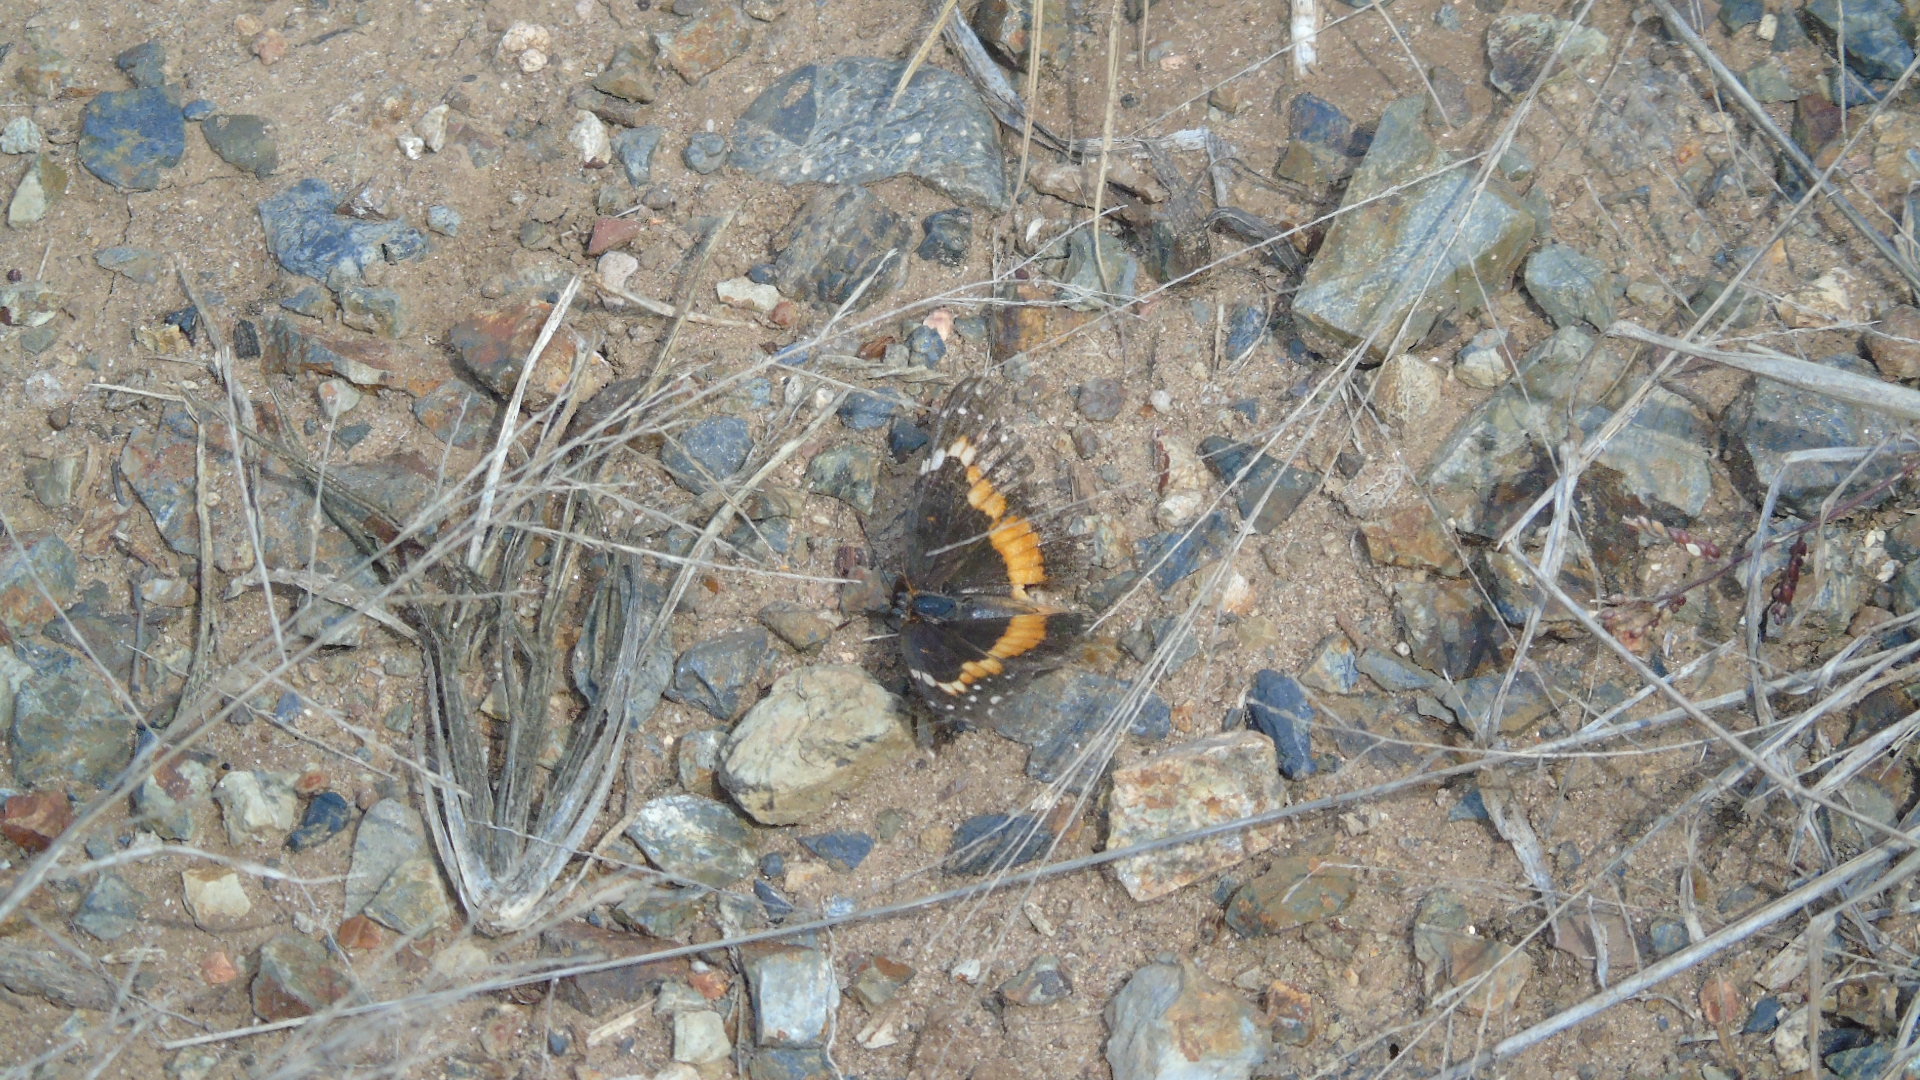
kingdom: Animalia
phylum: Arthropoda
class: Insecta
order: Lepidoptera
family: Nymphalidae
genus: Chlosyne
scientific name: Chlosyne lacinia
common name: Bordered patch
